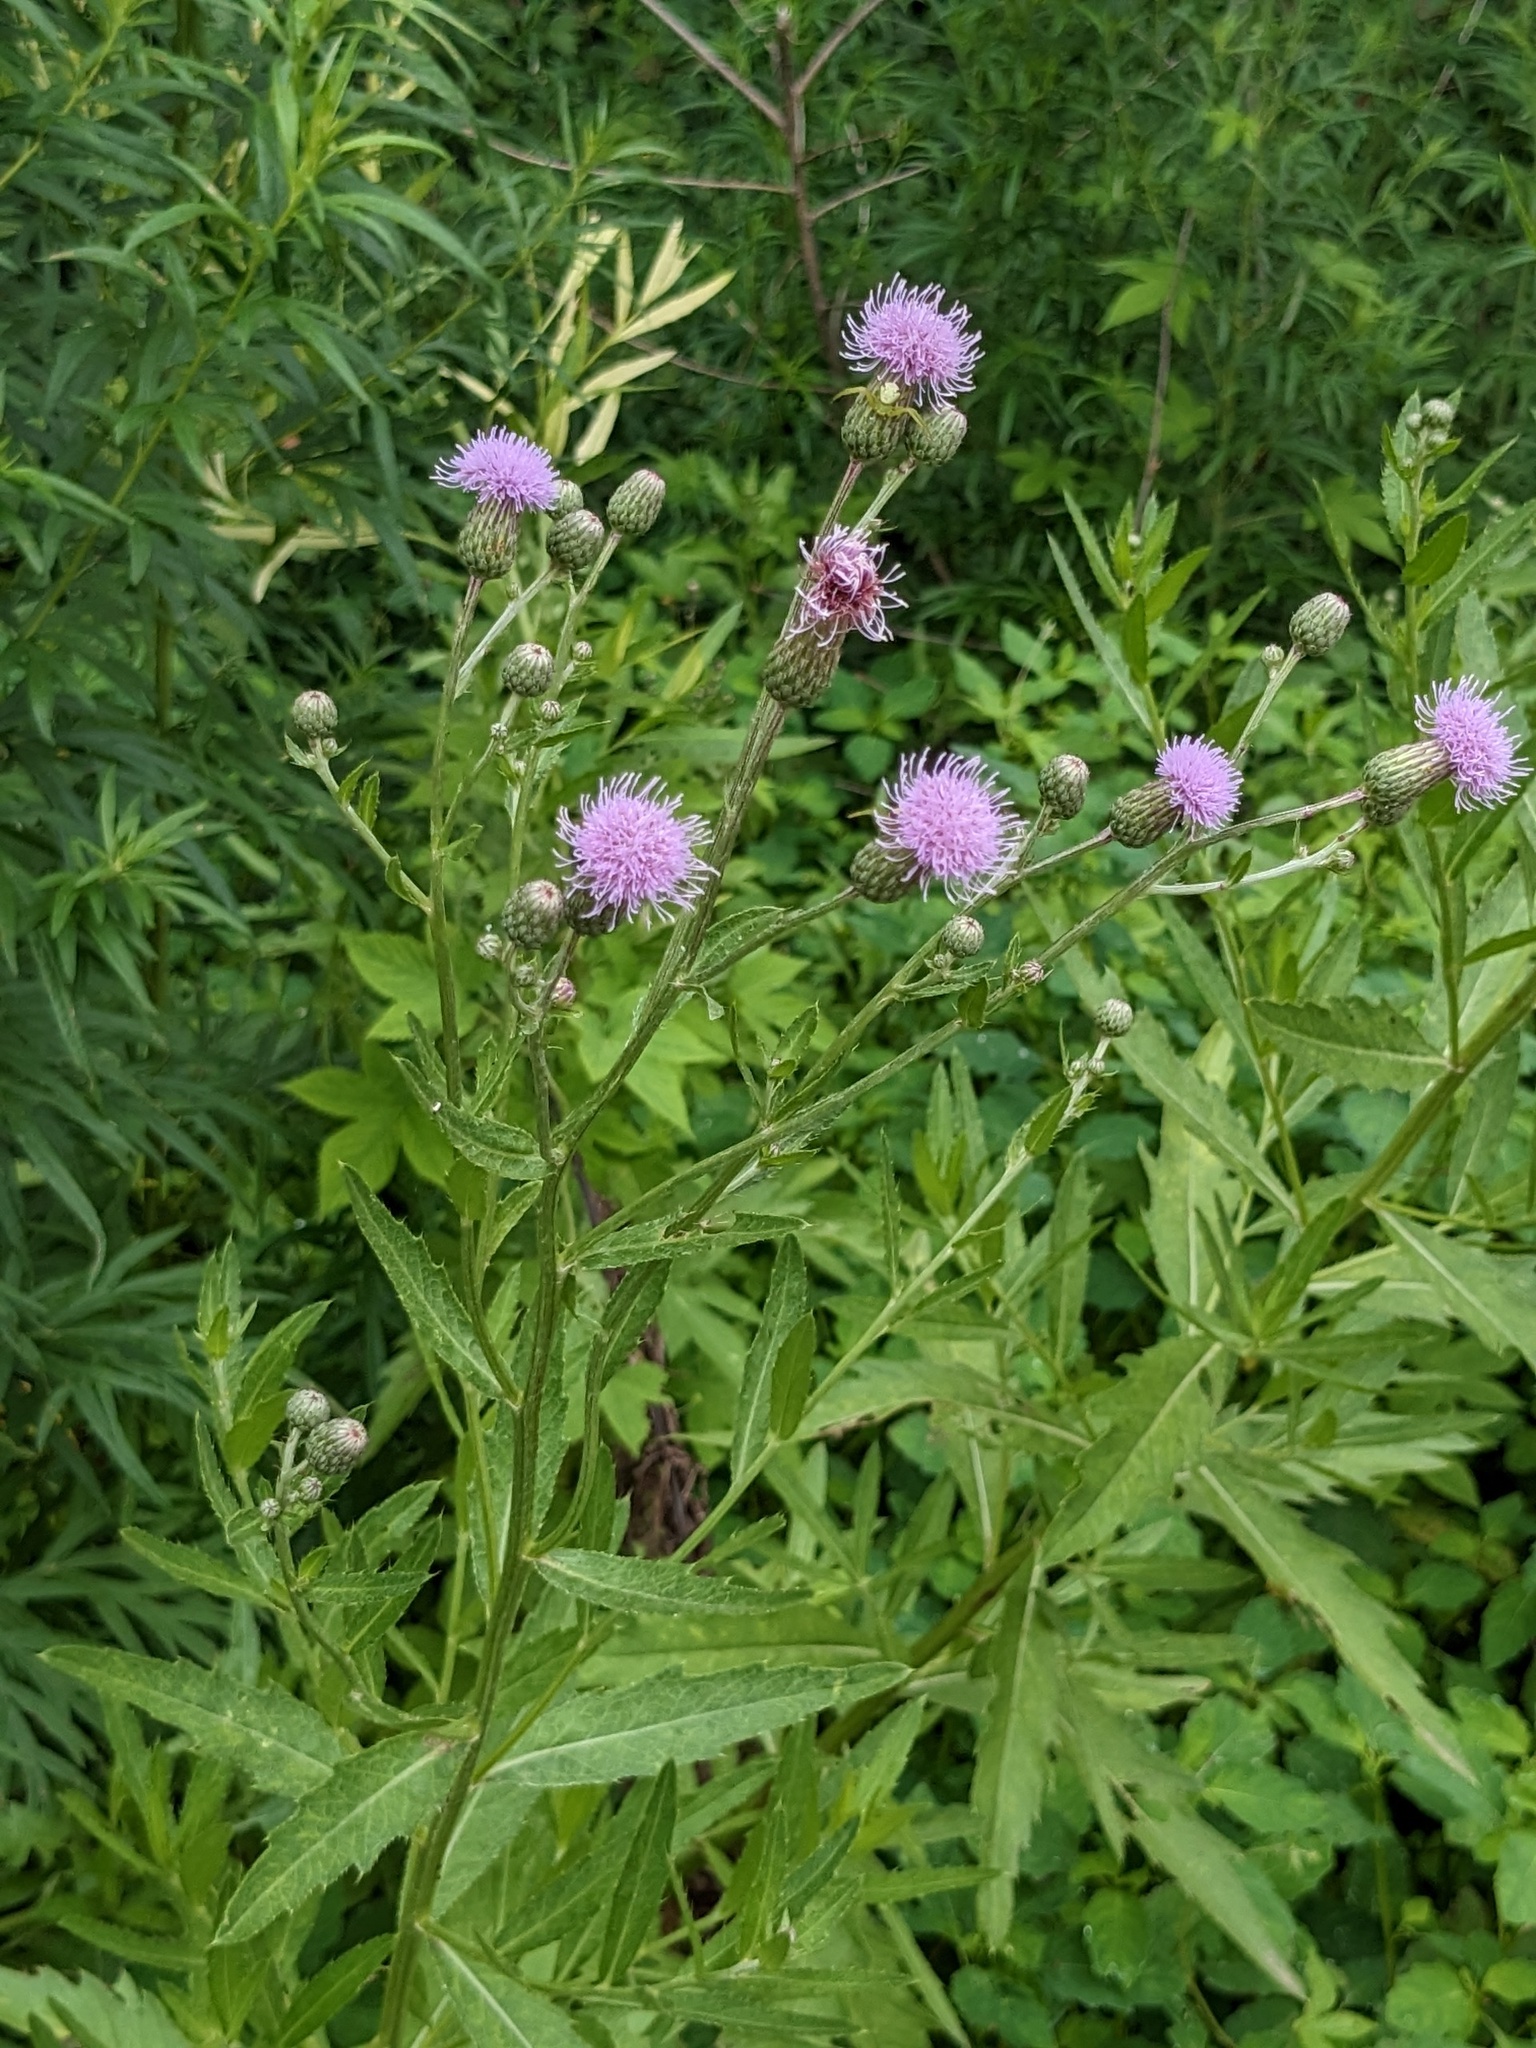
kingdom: Plantae
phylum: Tracheophyta
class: Magnoliopsida
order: Asterales
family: Asteraceae
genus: Cirsium
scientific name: Cirsium arvense
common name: Creeping thistle
